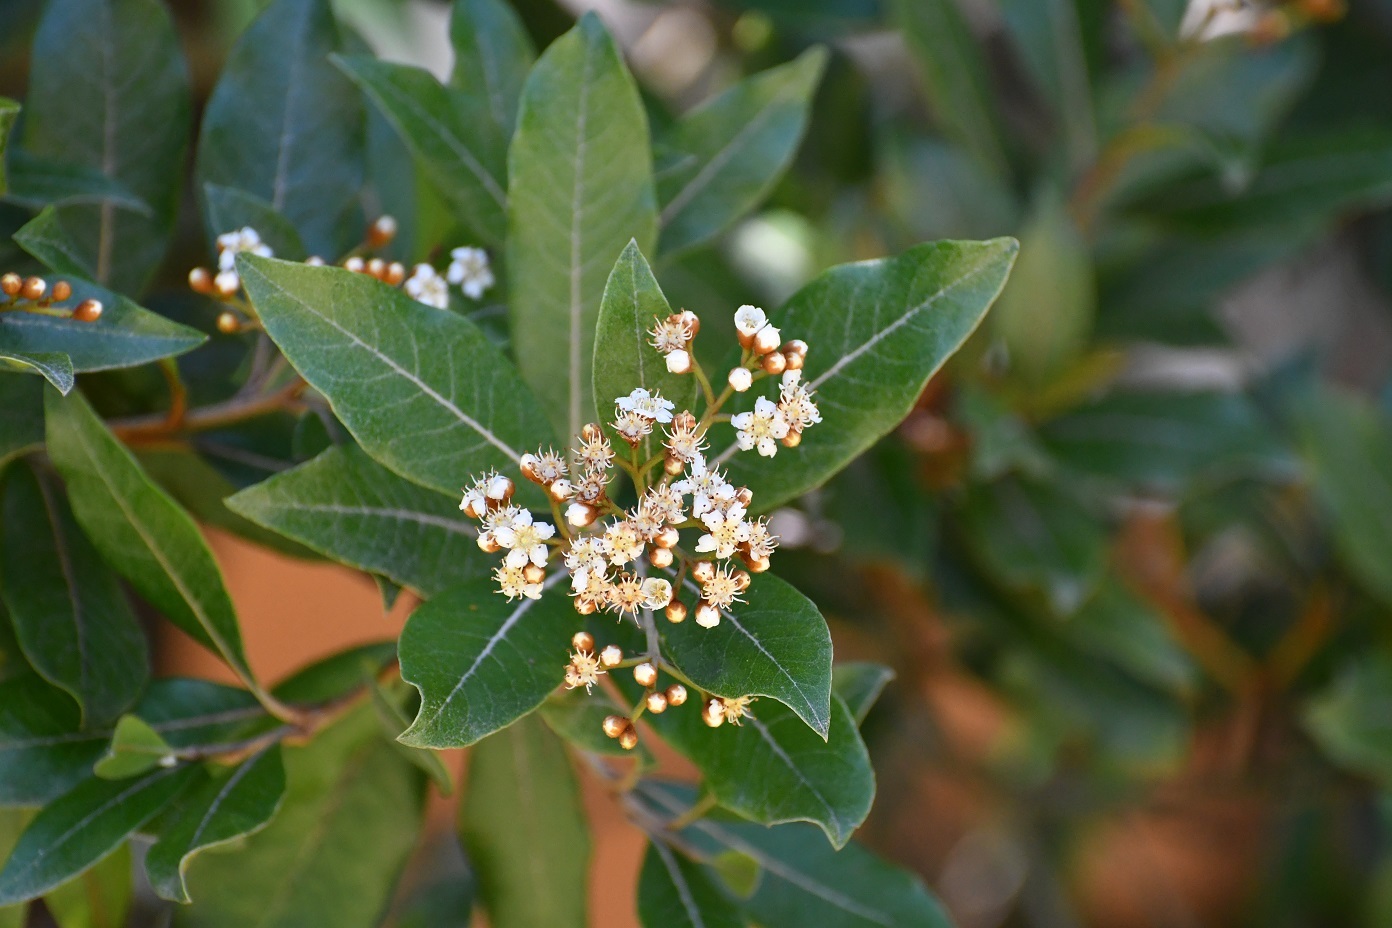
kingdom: Plantae
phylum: Tracheophyta
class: Magnoliopsida
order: Rosales
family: Rosaceae
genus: Phippsiomeles
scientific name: Phippsiomeles matudae
